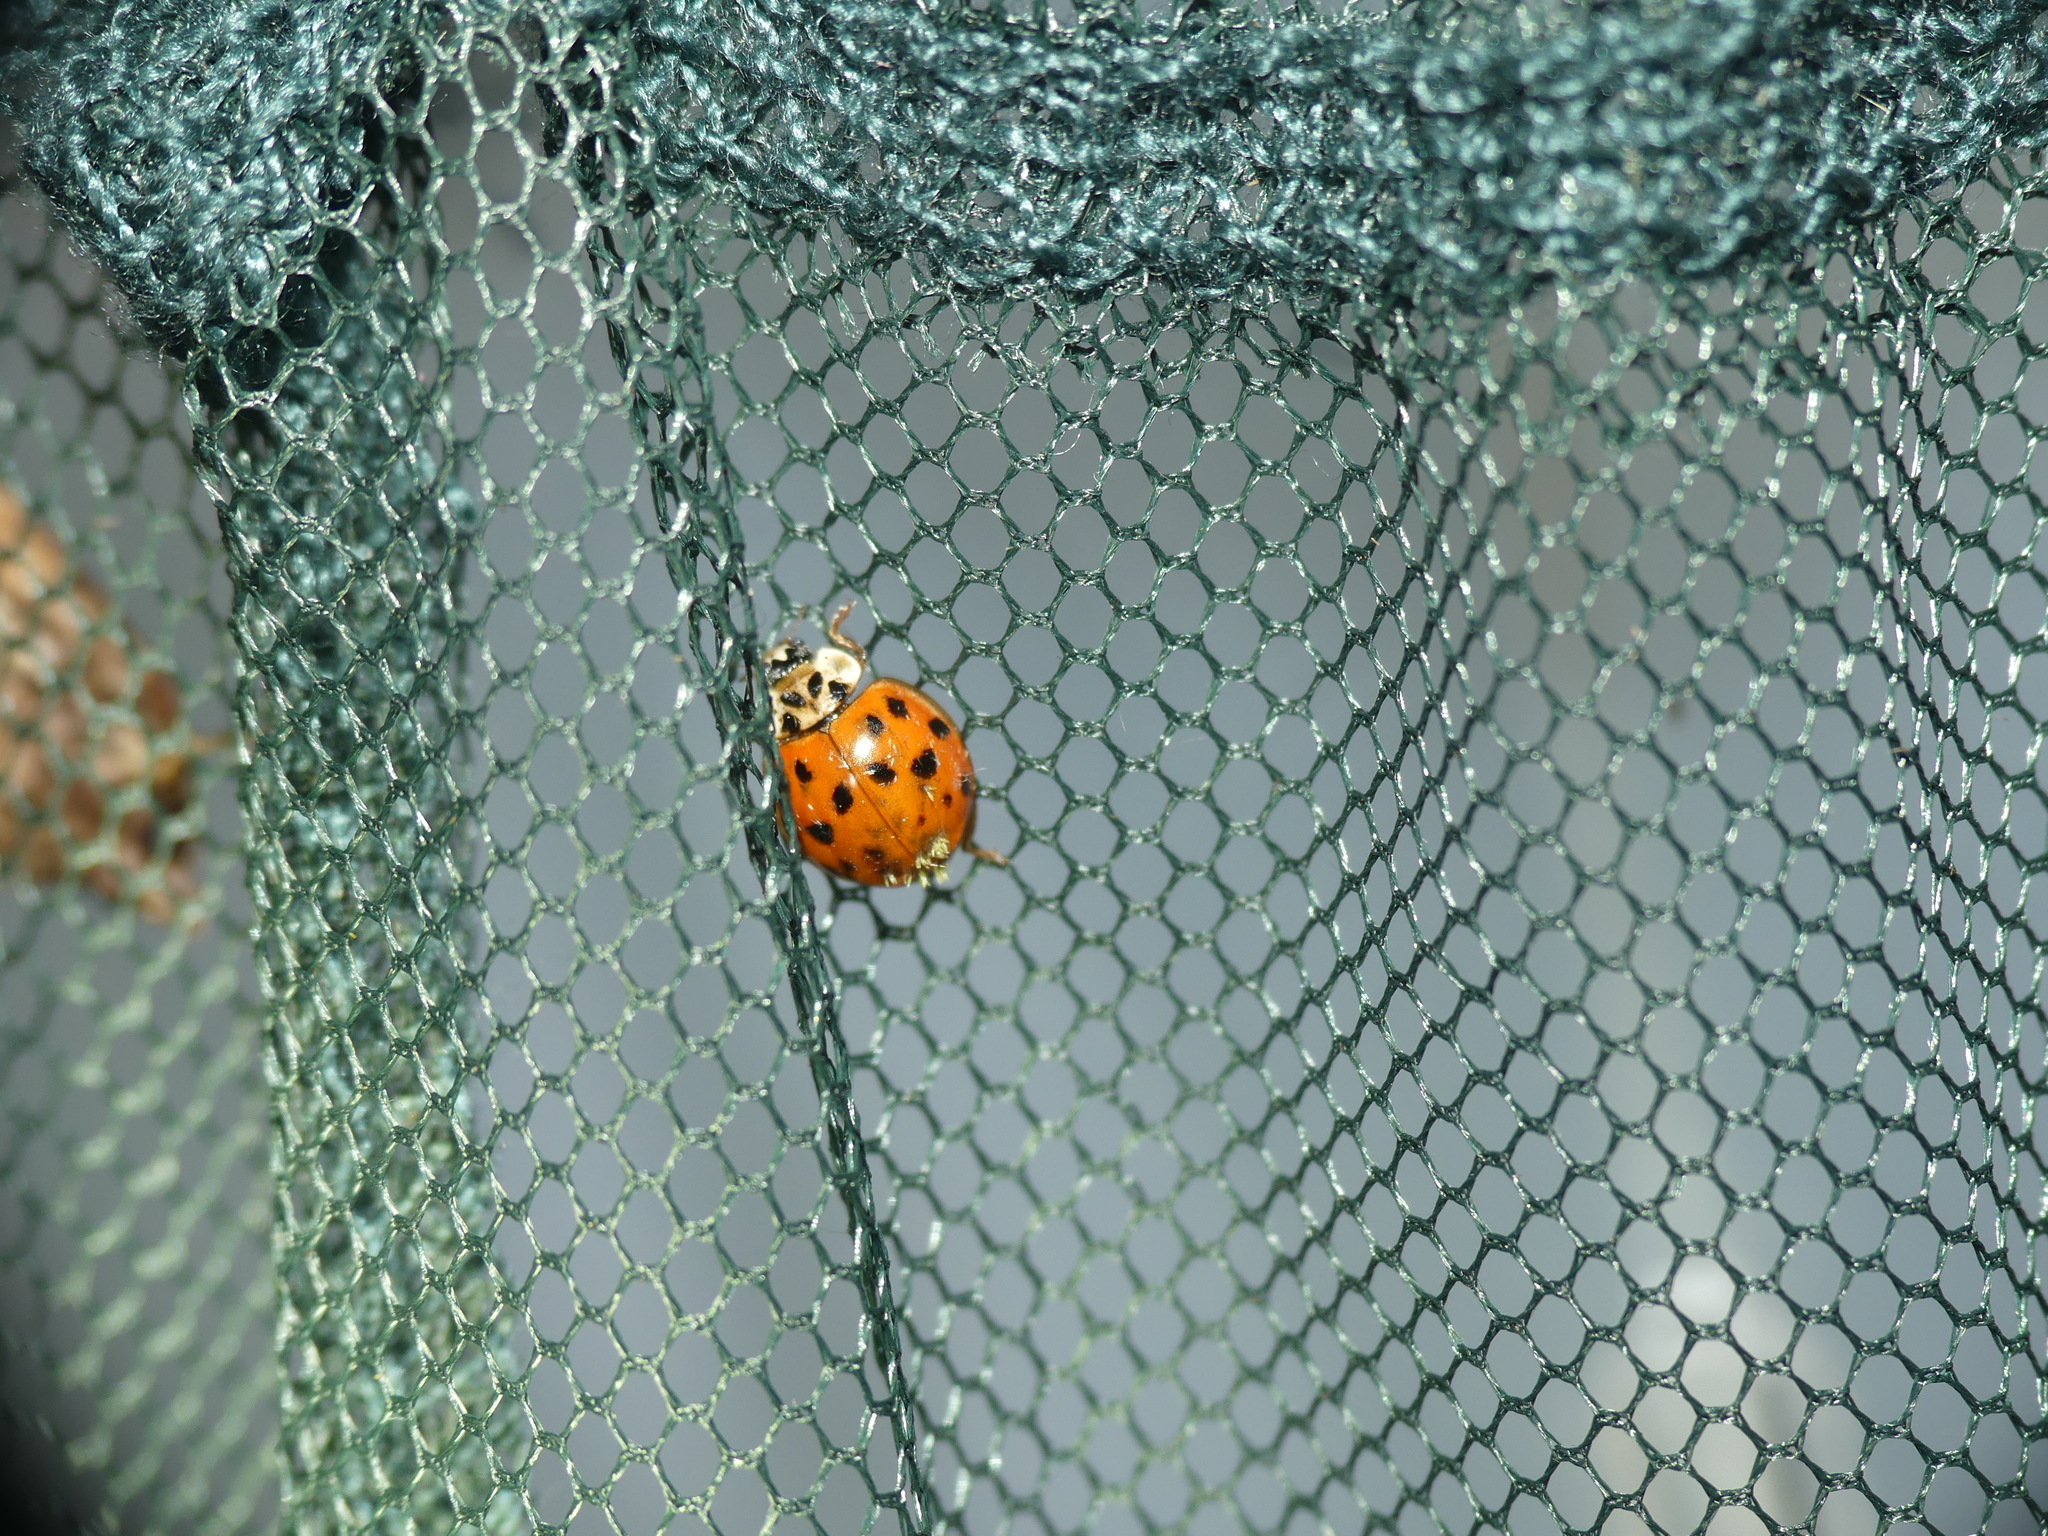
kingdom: Animalia
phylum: Arthropoda
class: Insecta
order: Coleoptera
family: Coccinellidae
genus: Harmonia
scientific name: Harmonia axyridis
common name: Harlequin ladybird
